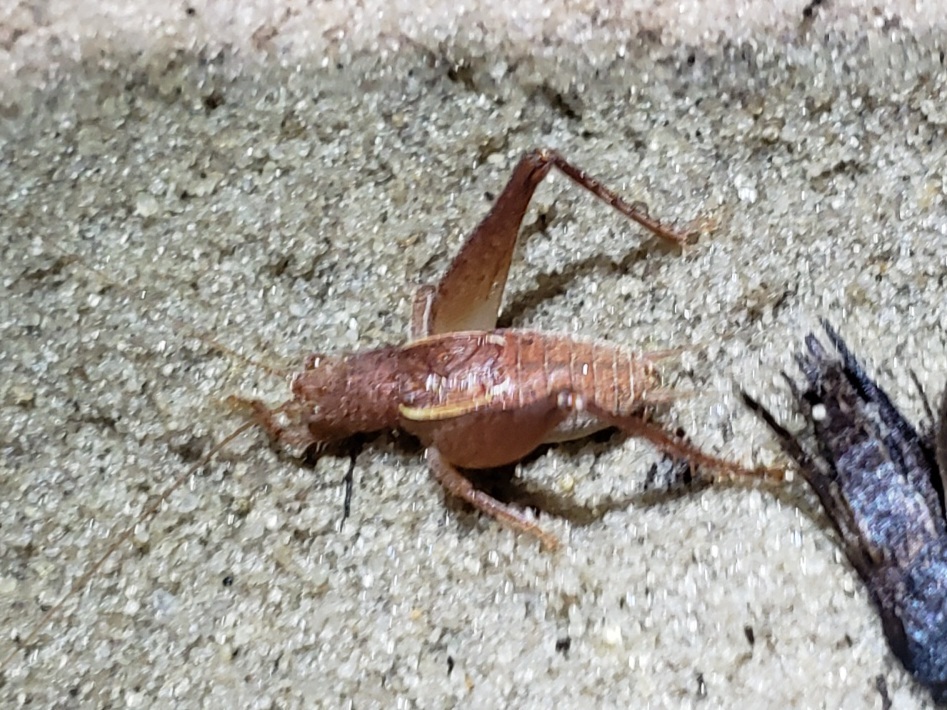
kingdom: Animalia
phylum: Arthropoda
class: Insecta
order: Orthoptera
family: Gryllidae
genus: Hapithus
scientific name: Hapithus brevipennis
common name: Short-winged bush cricket
